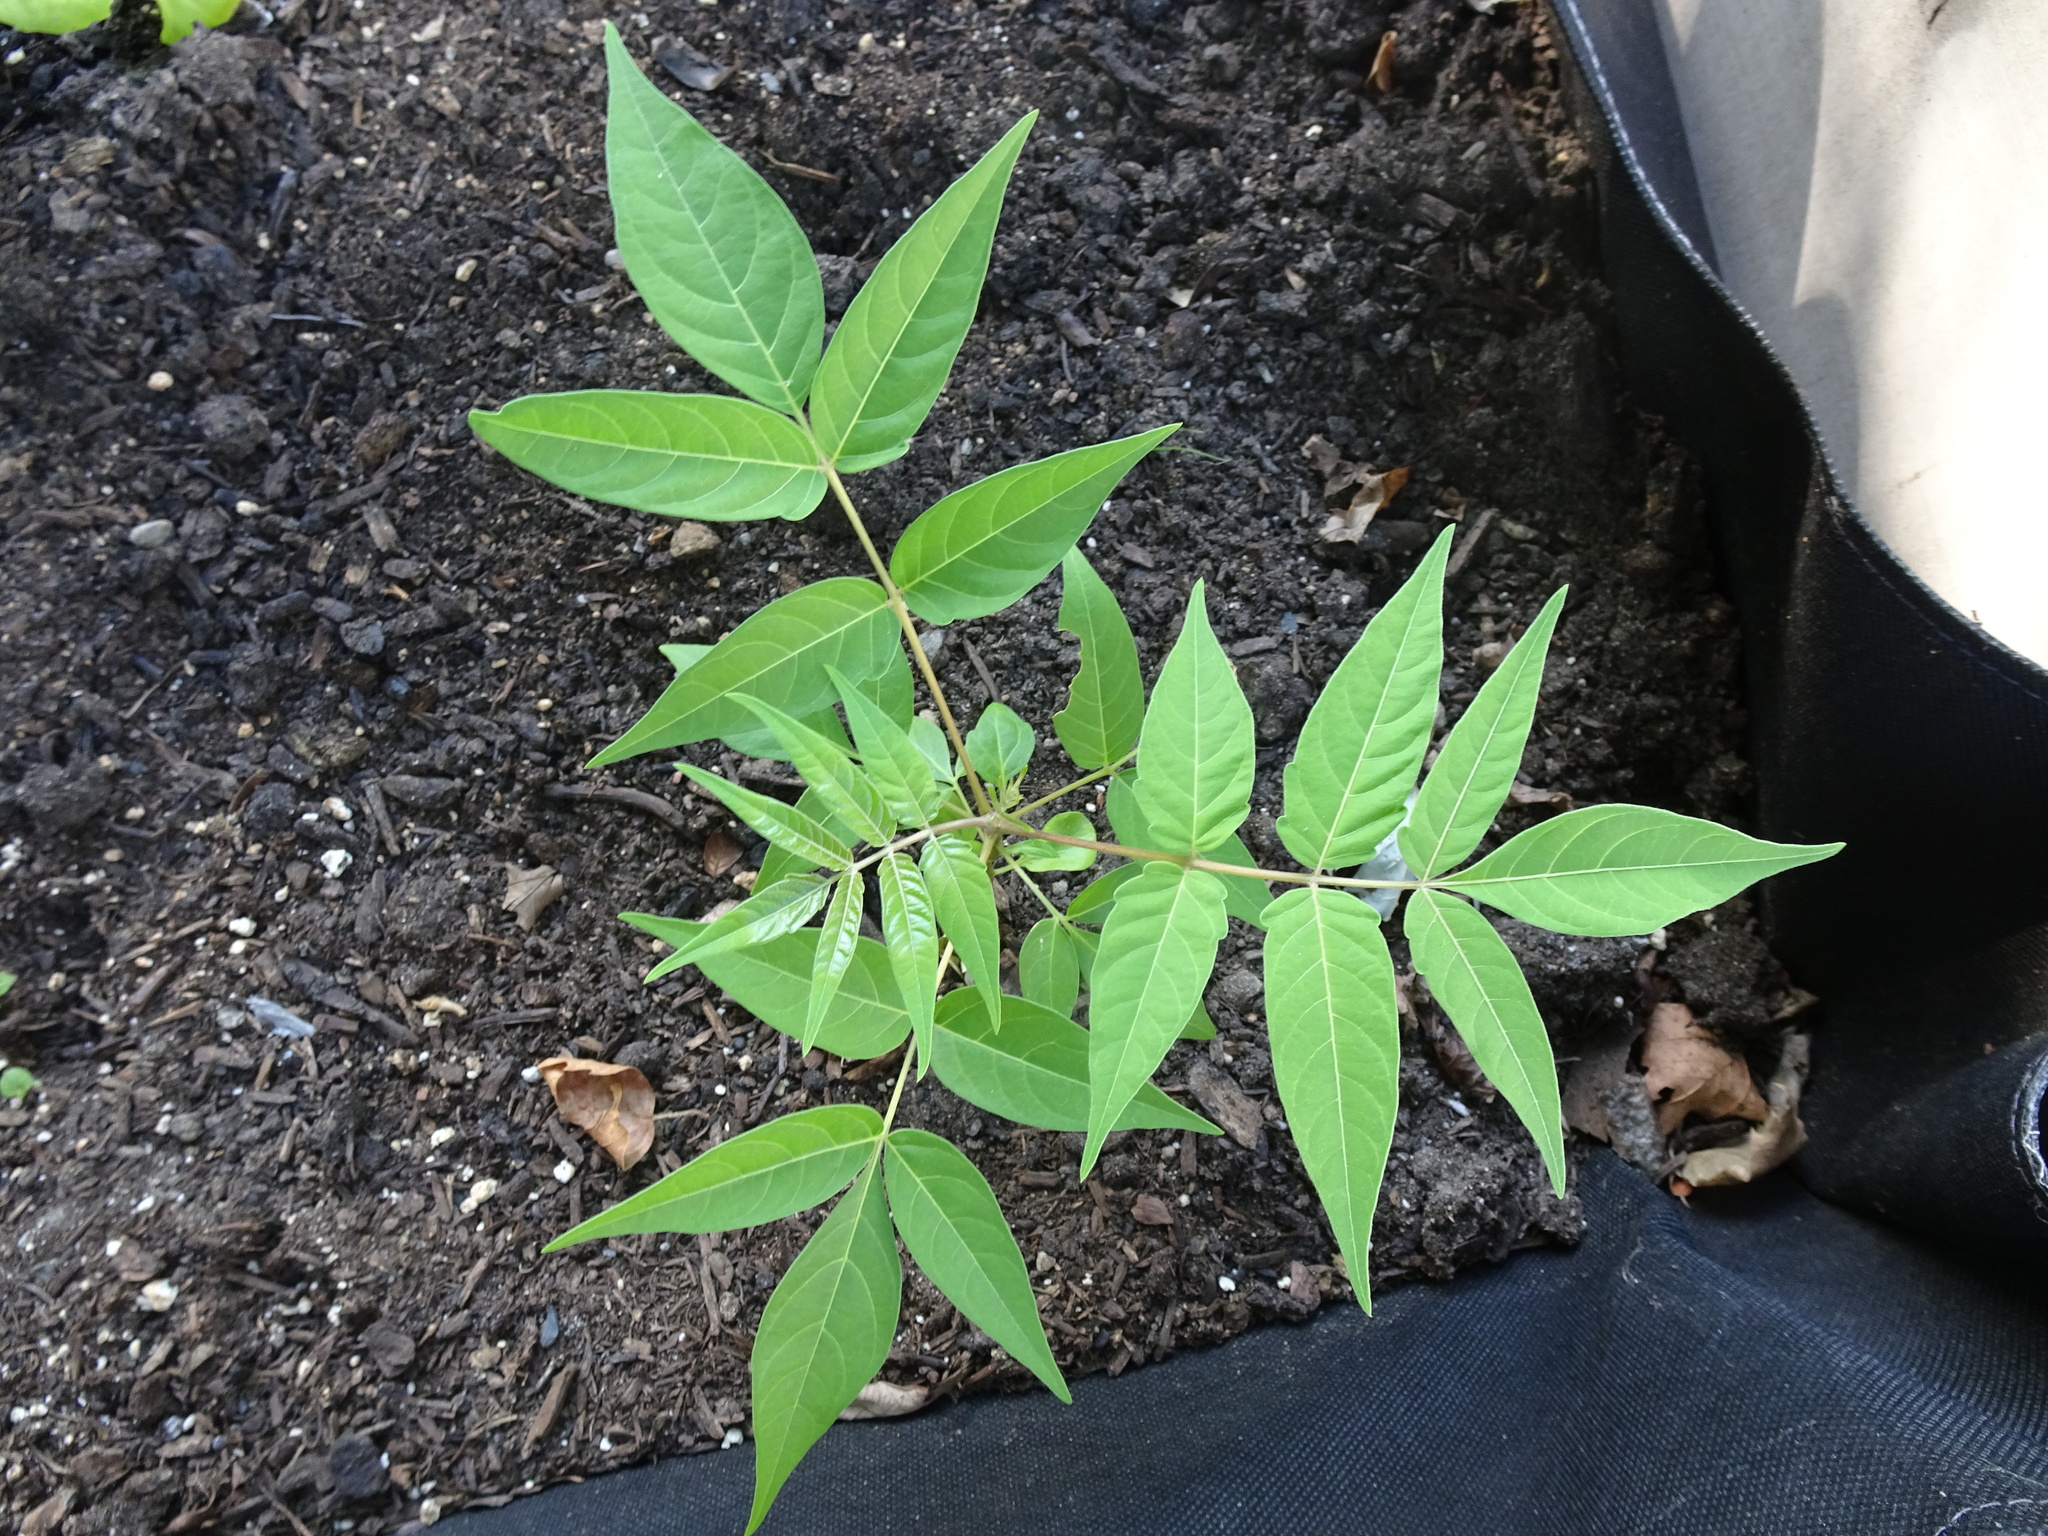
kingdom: Plantae
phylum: Tracheophyta
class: Magnoliopsida
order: Sapindales
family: Simaroubaceae
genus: Ailanthus
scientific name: Ailanthus altissima
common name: Tree-of-heaven
